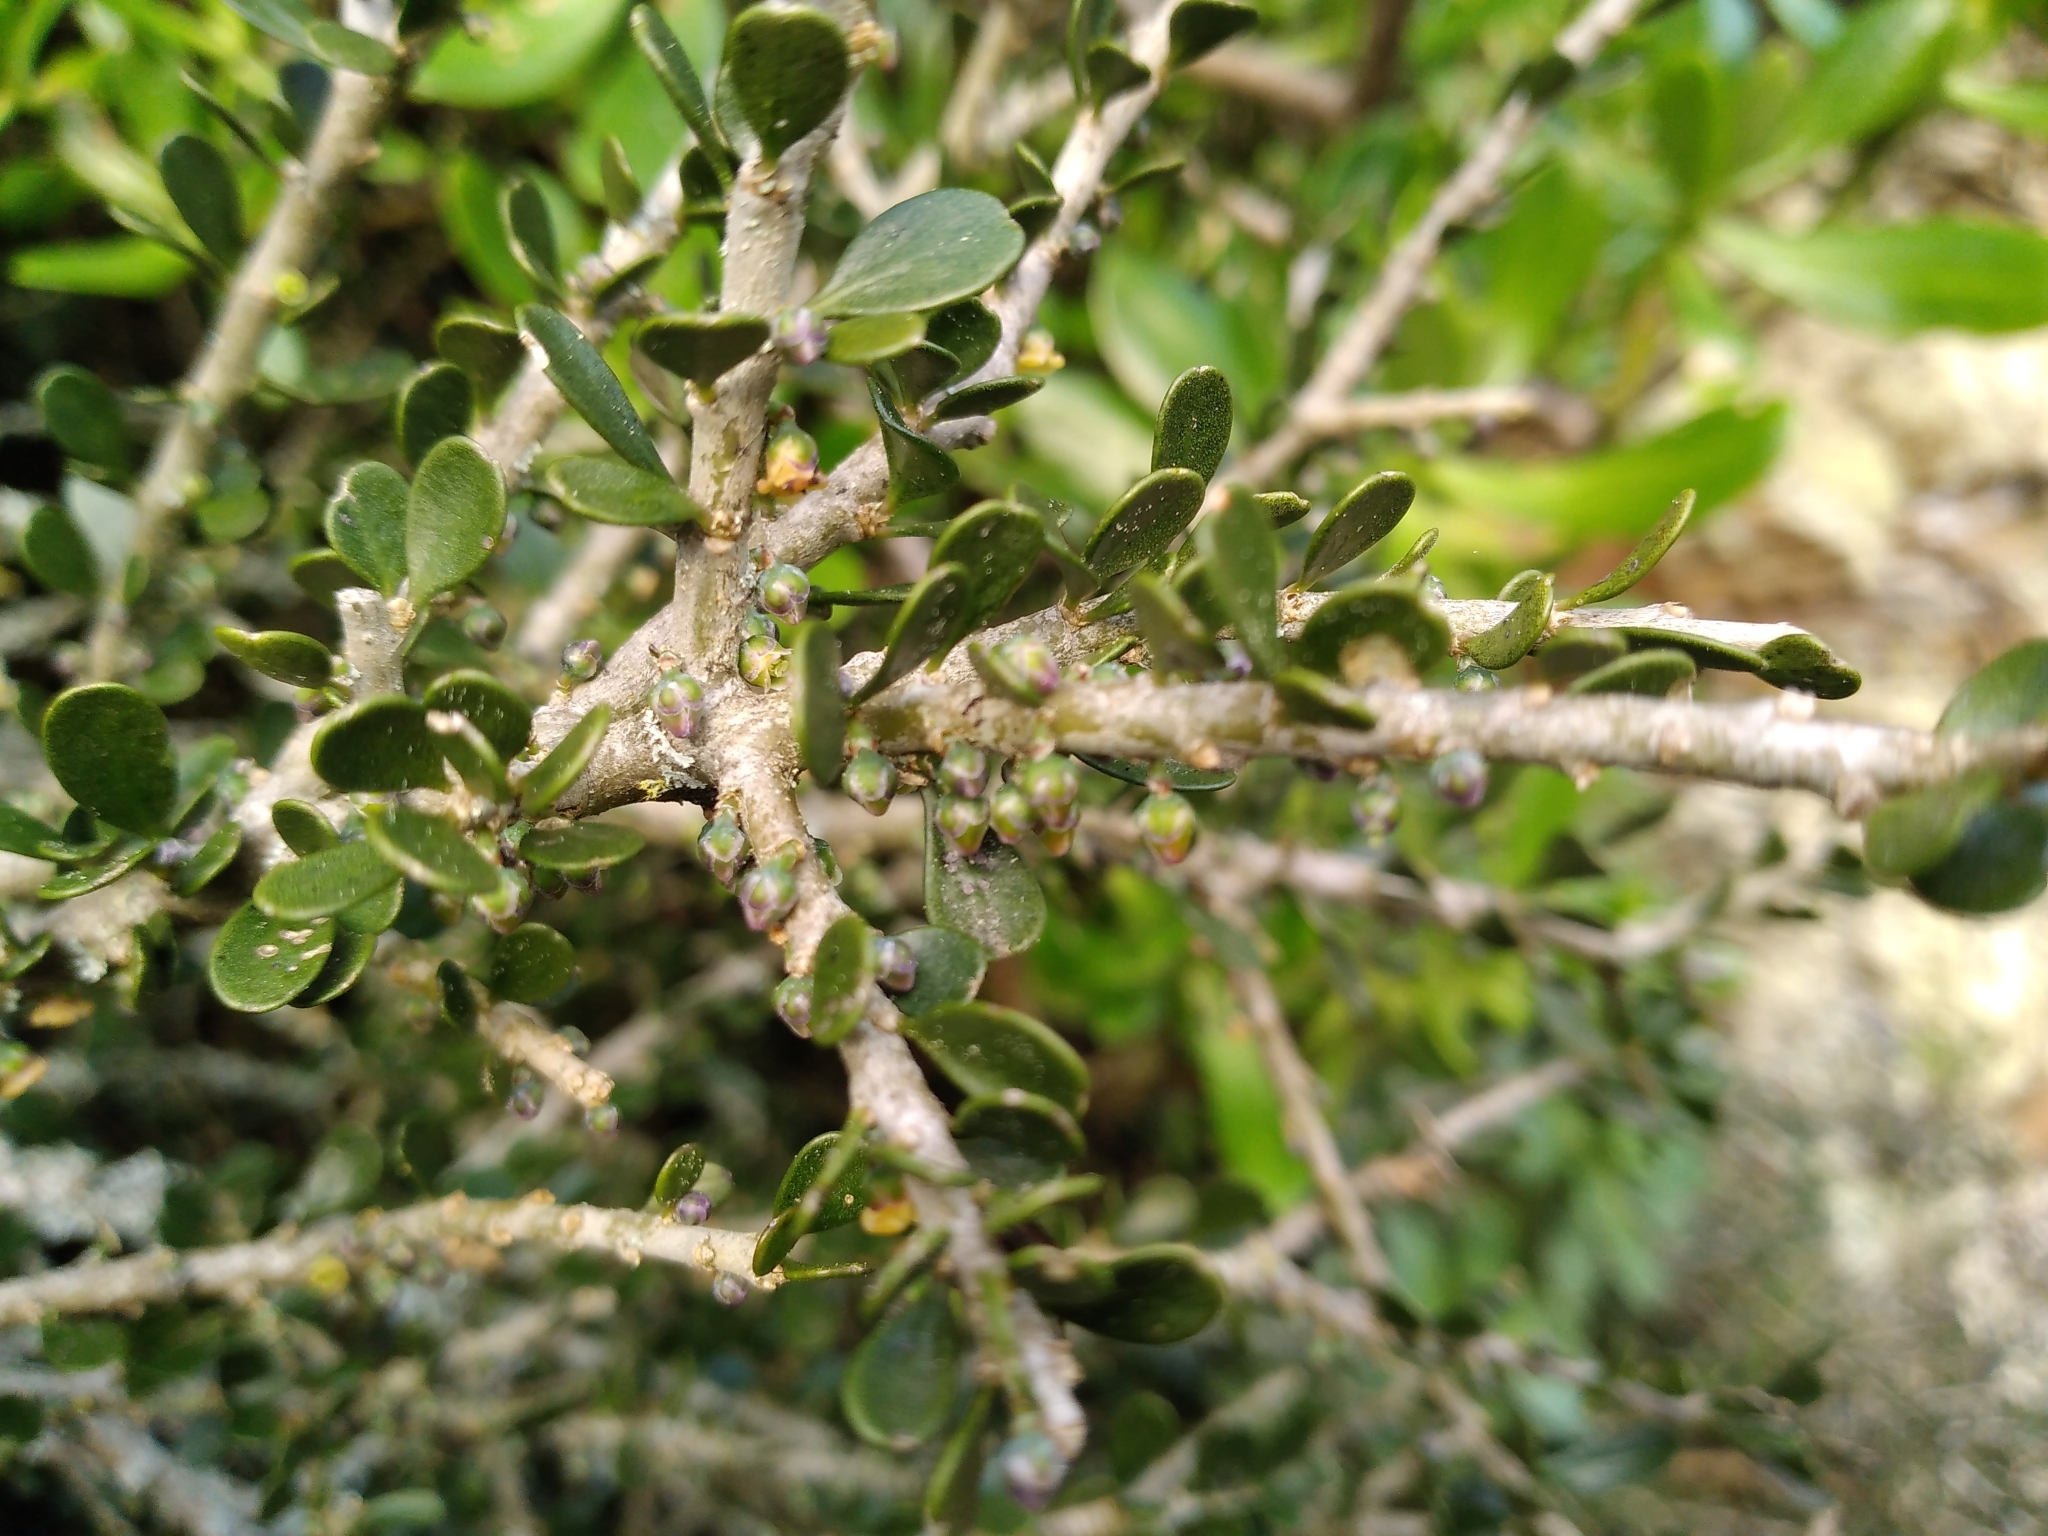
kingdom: Plantae
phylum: Tracheophyta
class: Magnoliopsida
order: Malpighiales
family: Violaceae
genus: Melicytus
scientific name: Melicytus crassifolius
